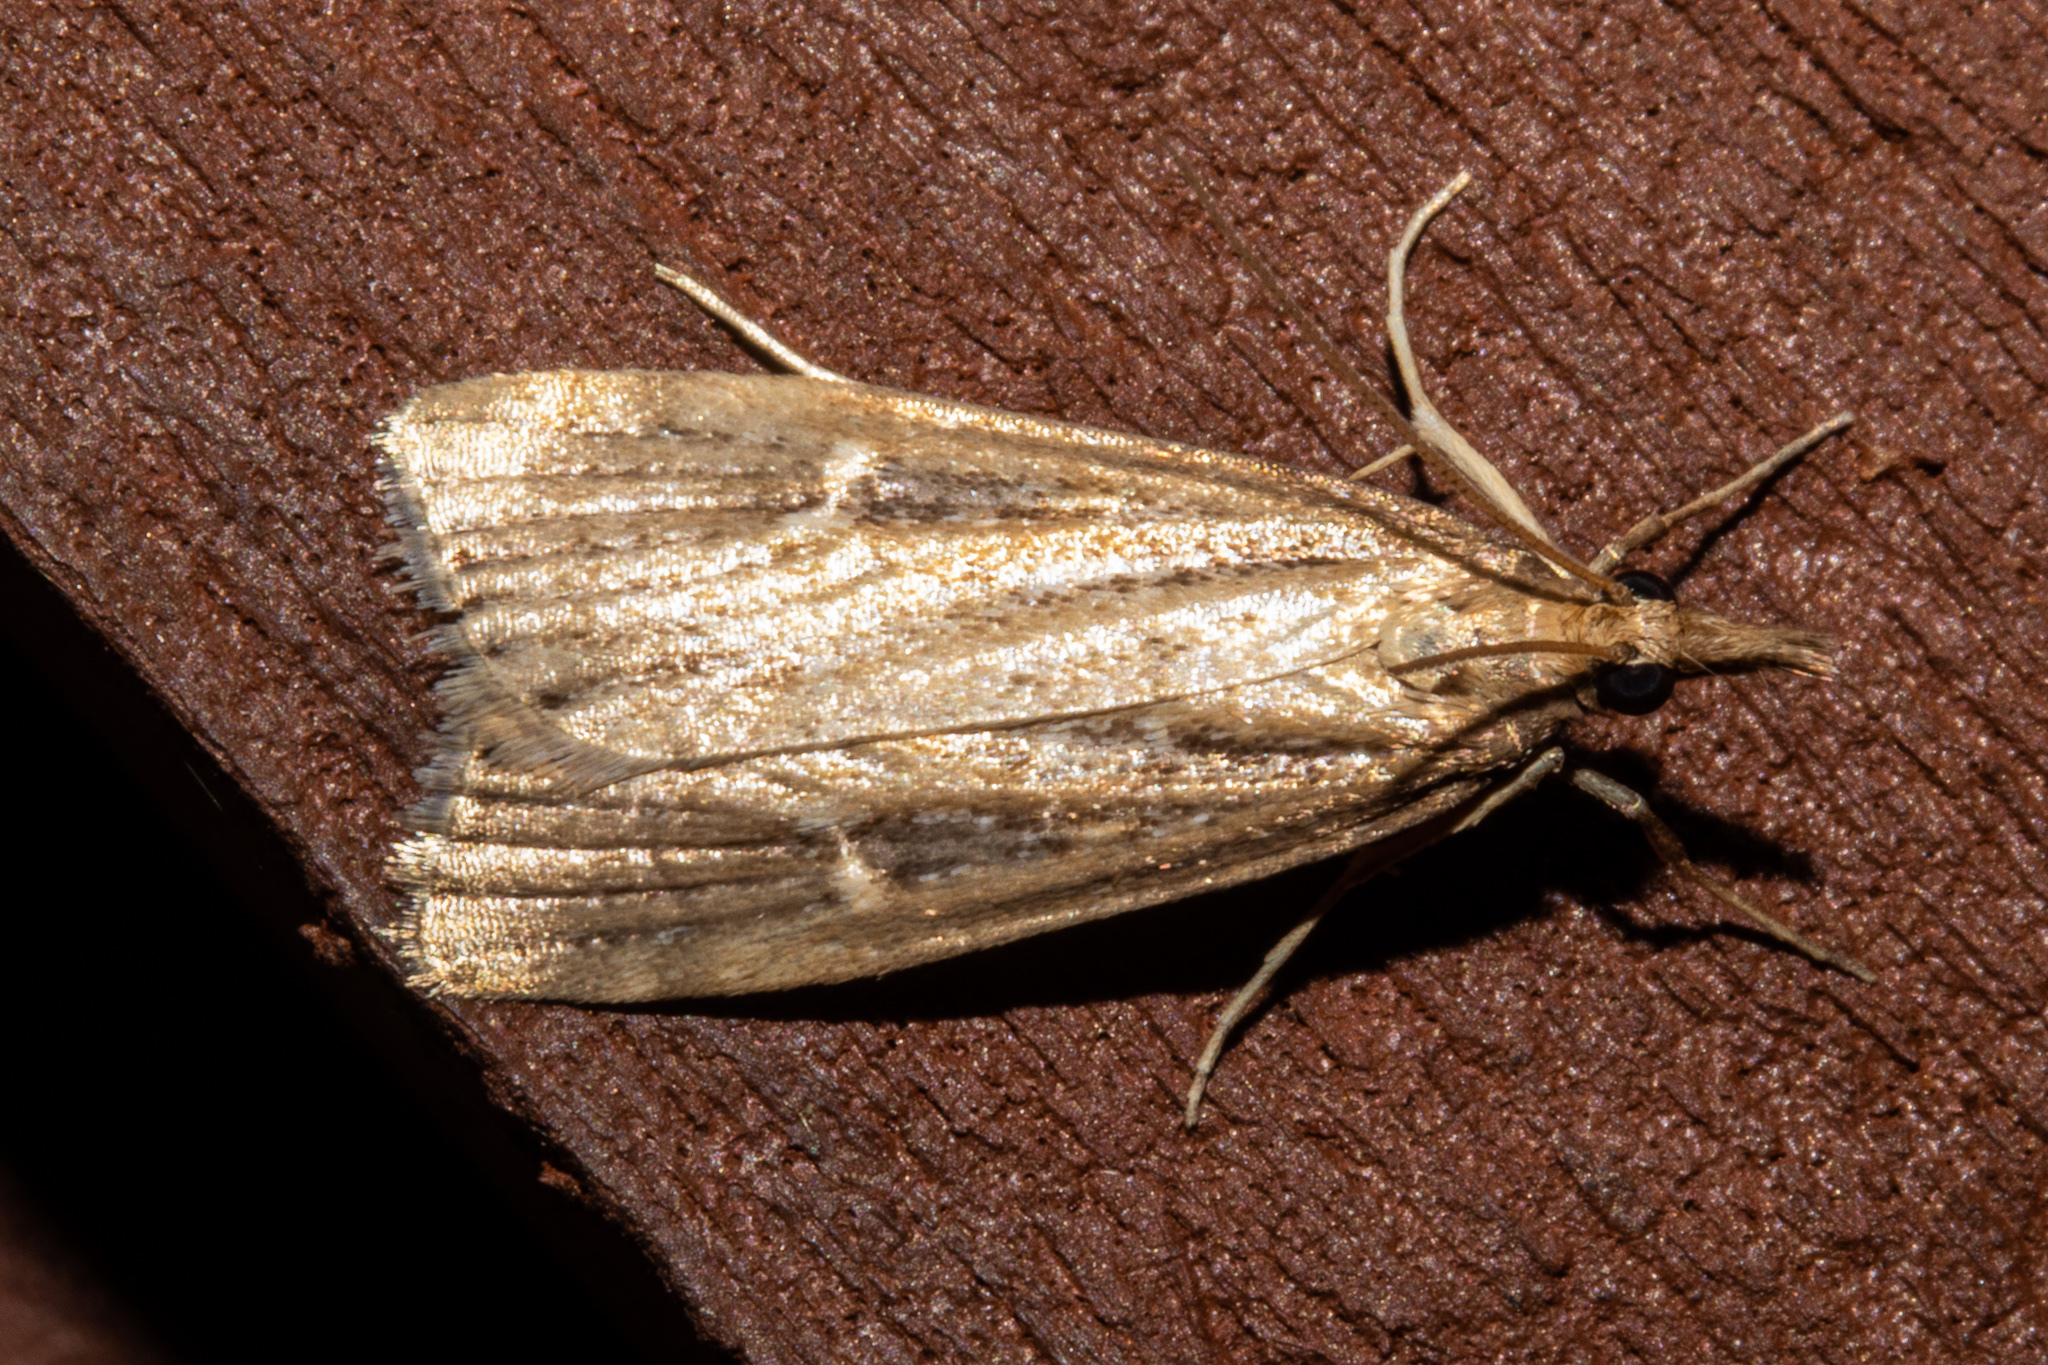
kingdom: Animalia
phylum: Arthropoda
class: Insecta
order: Lepidoptera
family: Crambidae
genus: Eudonia
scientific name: Eudonia octophora
